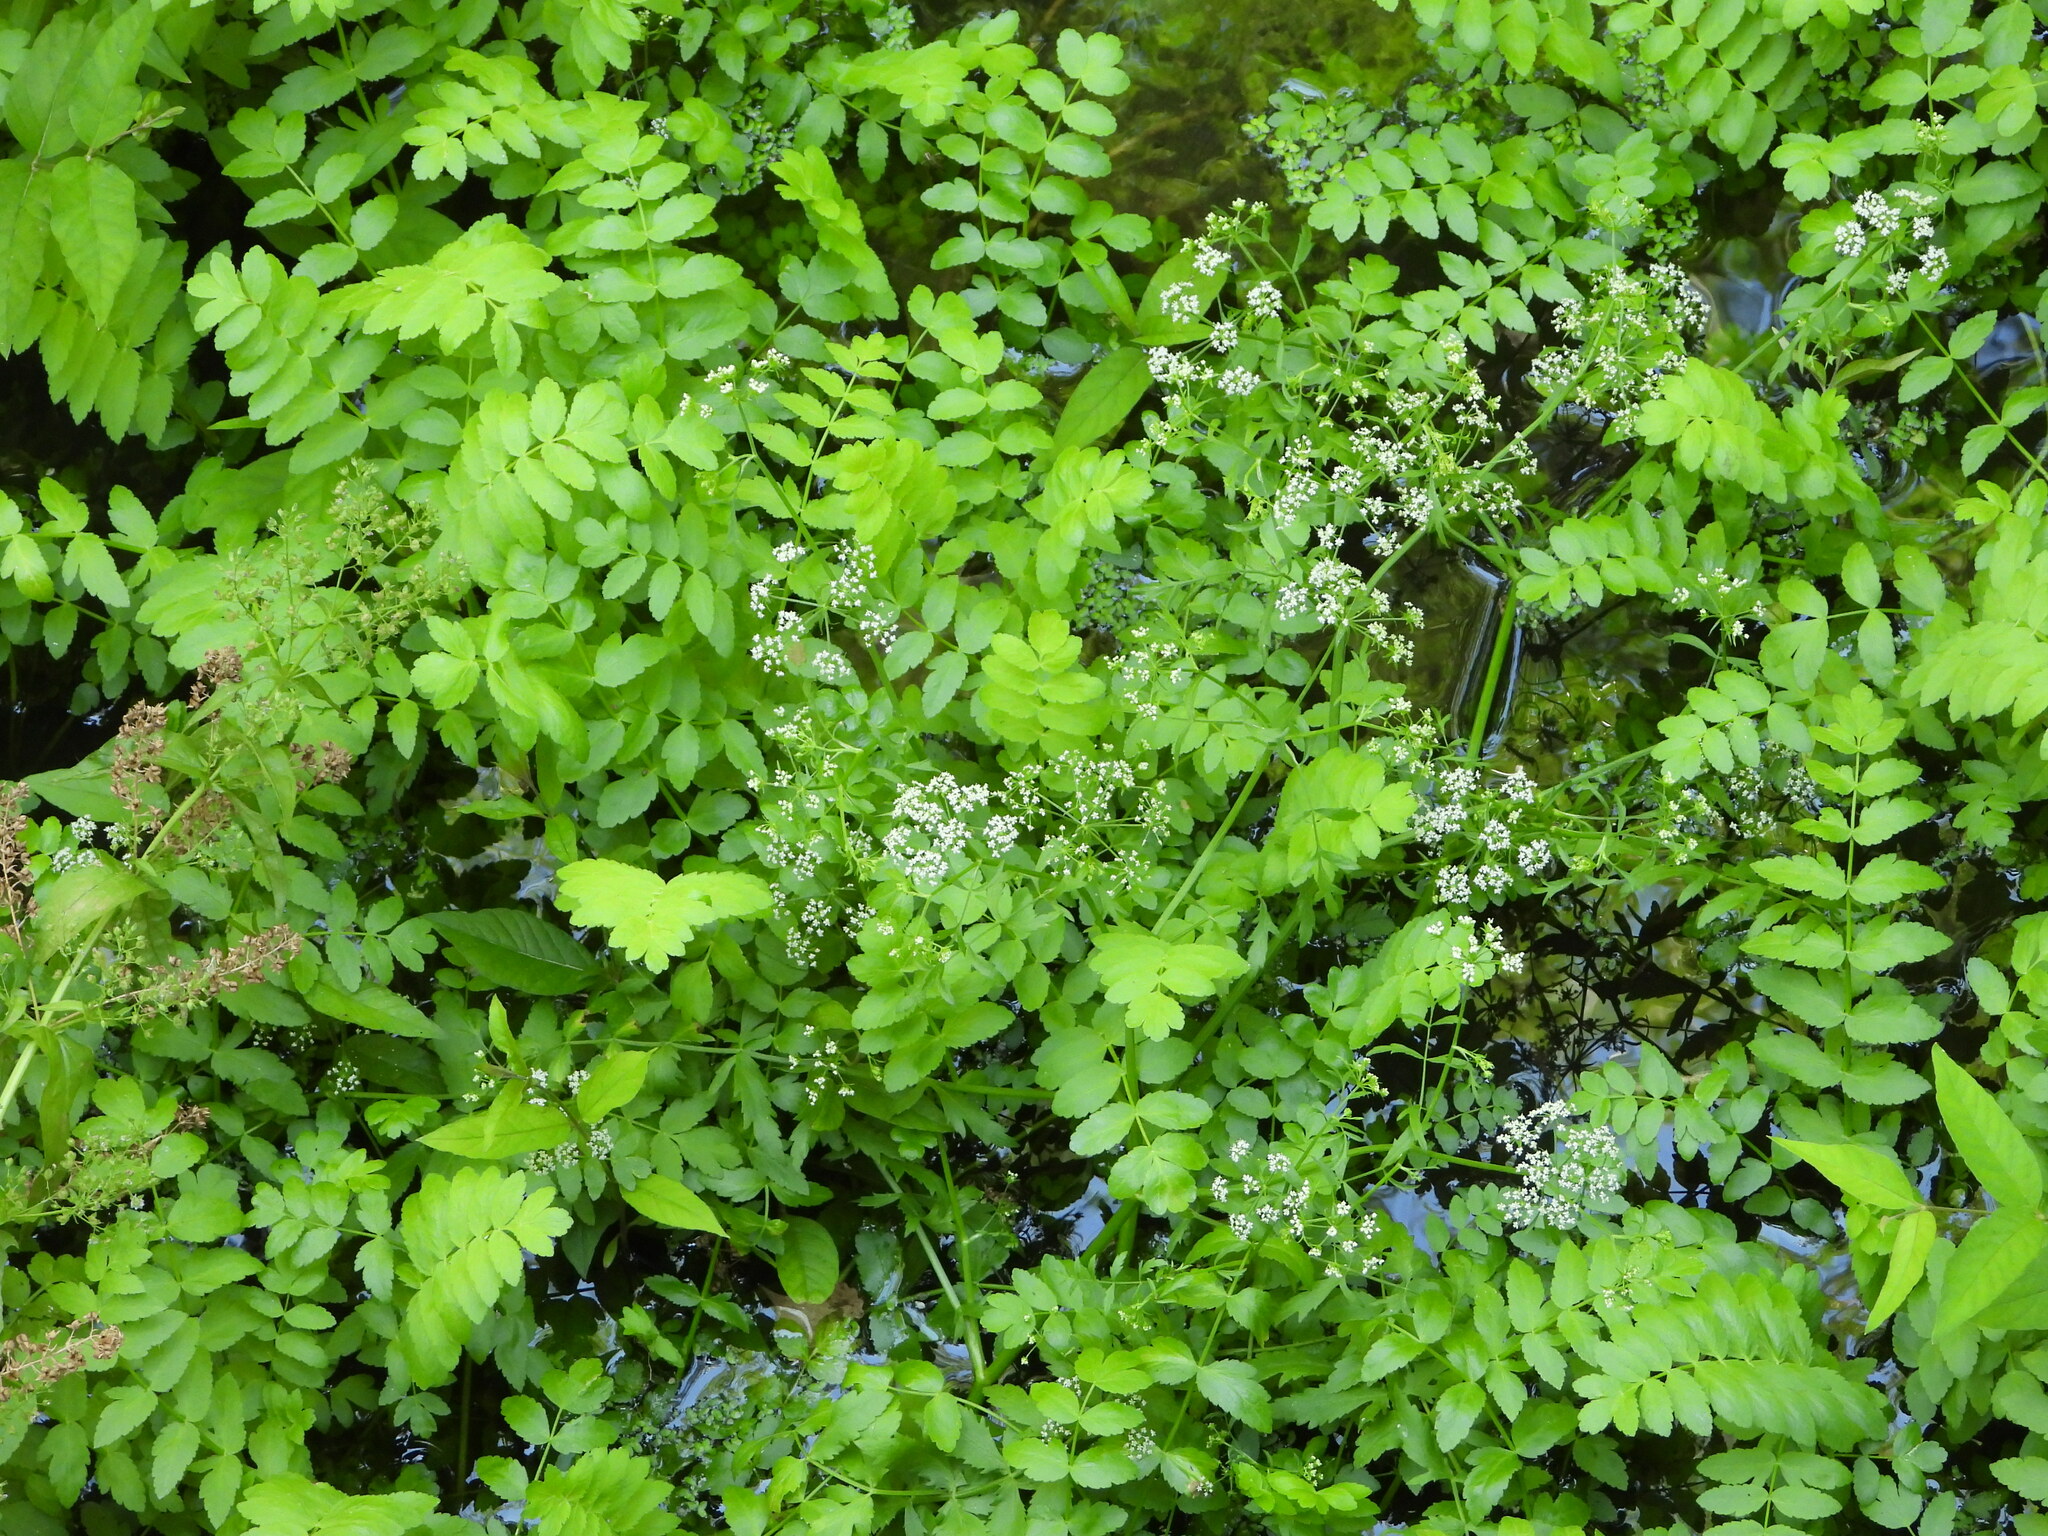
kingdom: Plantae
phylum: Tracheophyta
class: Magnoliopsida
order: Apiales
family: Apiaceae
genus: Berula
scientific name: Berula erecta
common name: Lesser water-parsnip
